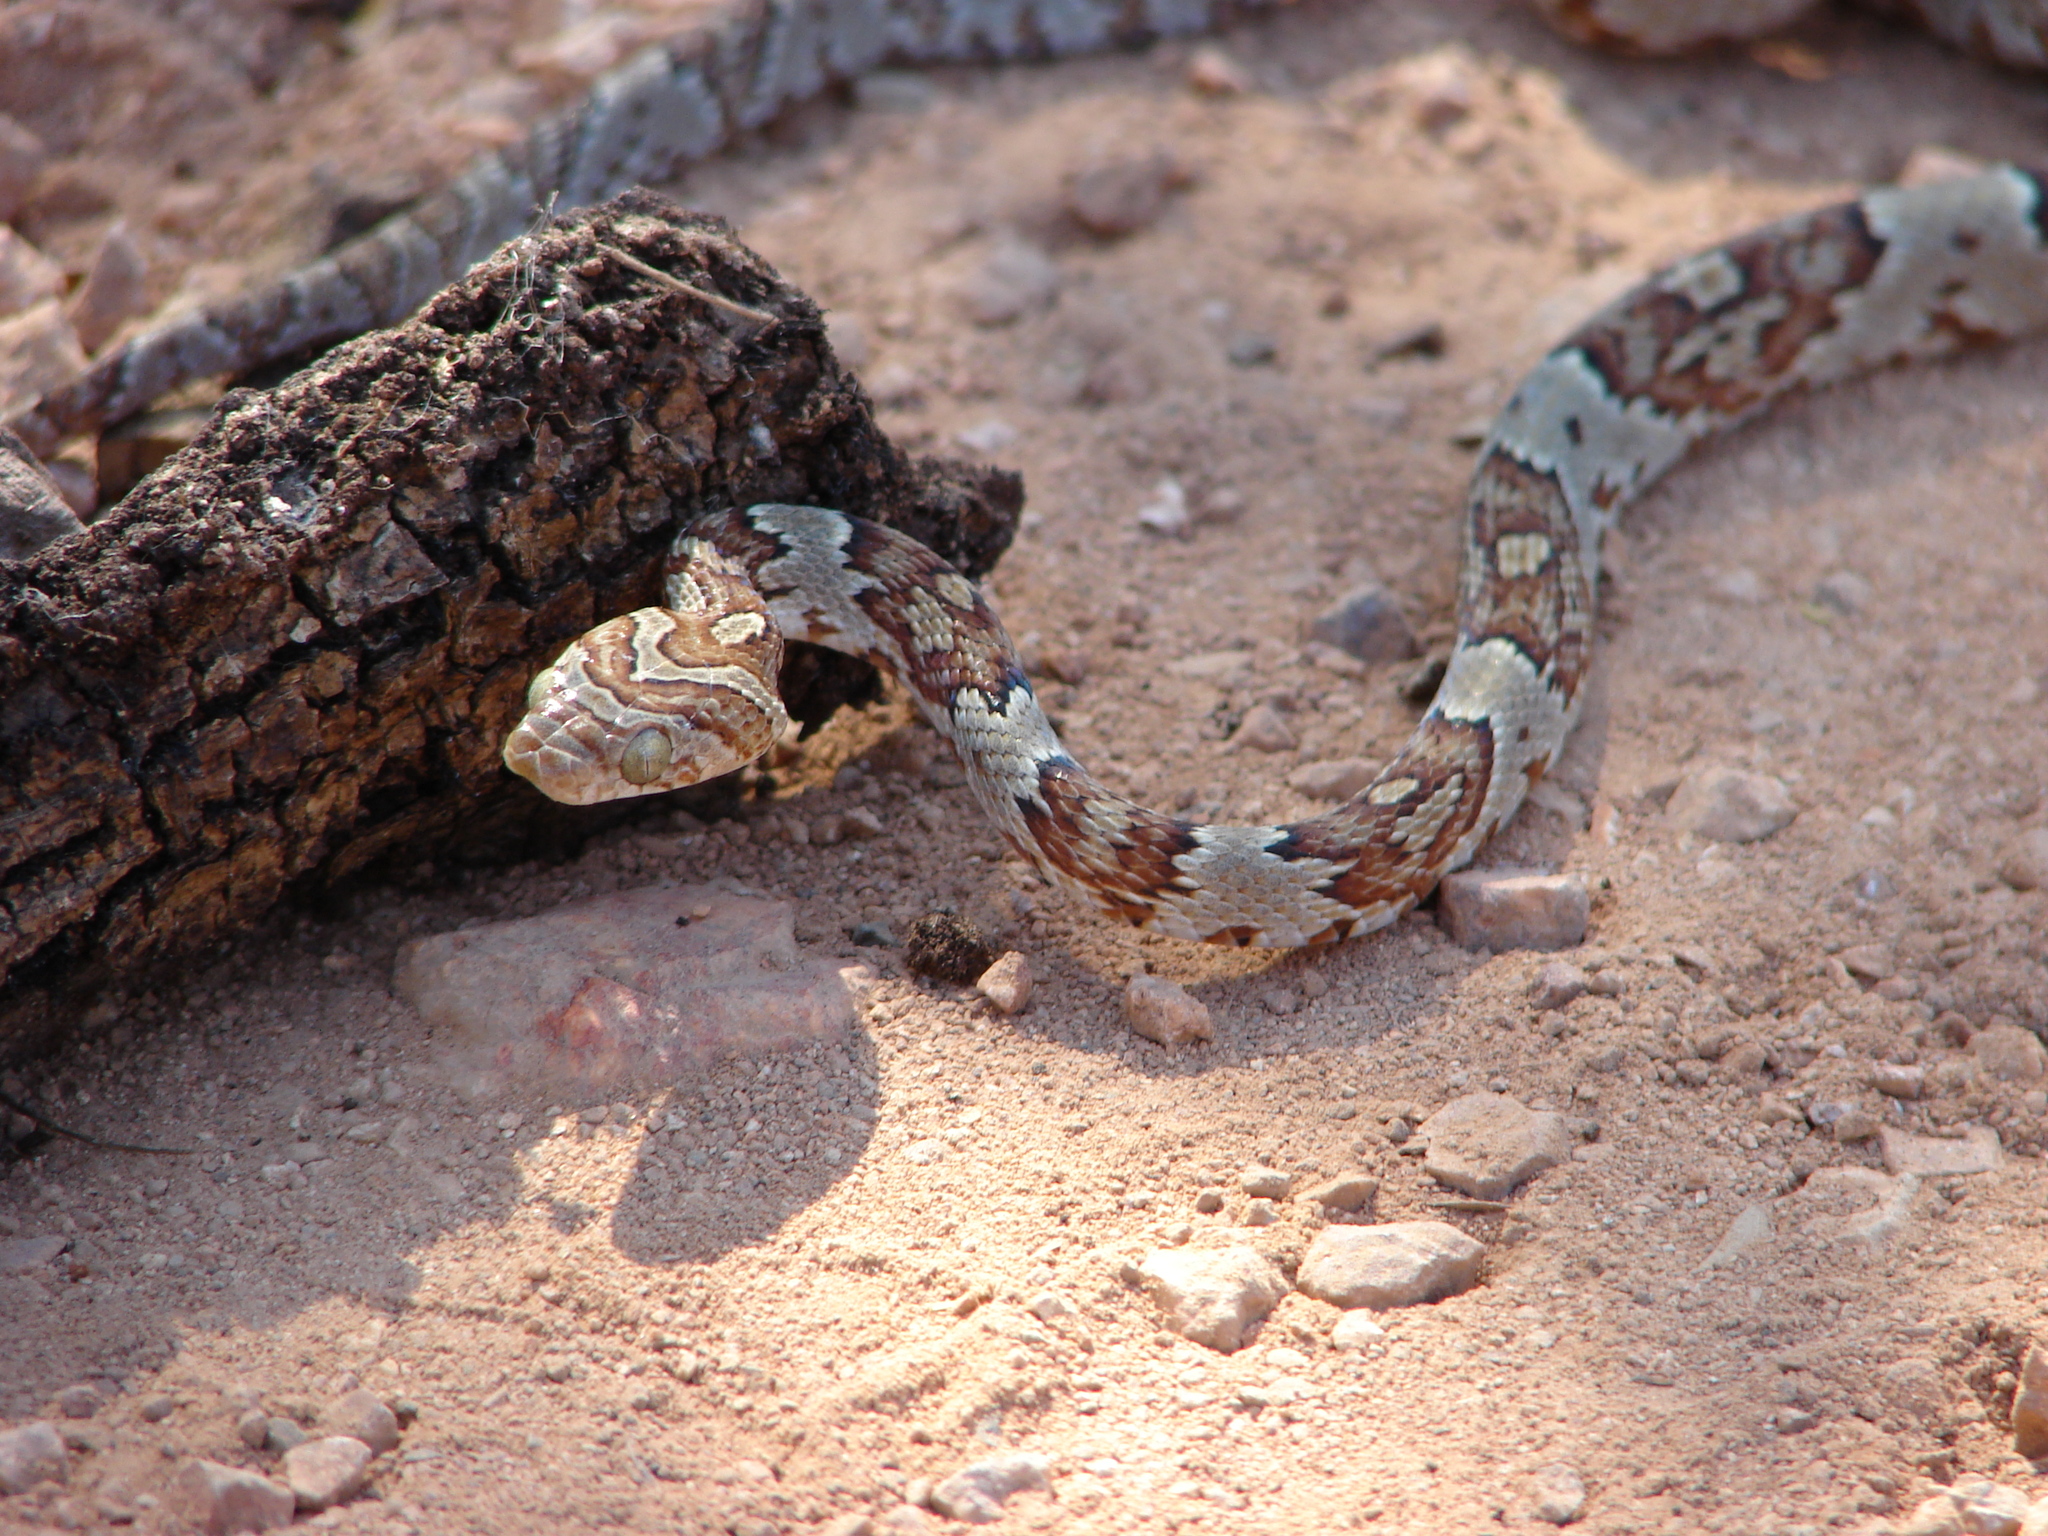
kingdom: Animalia
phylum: Chordata
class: Squamata
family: Colubridae
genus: Trimorphodon
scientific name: Trimorphodon paucimaculatus
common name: Sinaloan lyresnake
